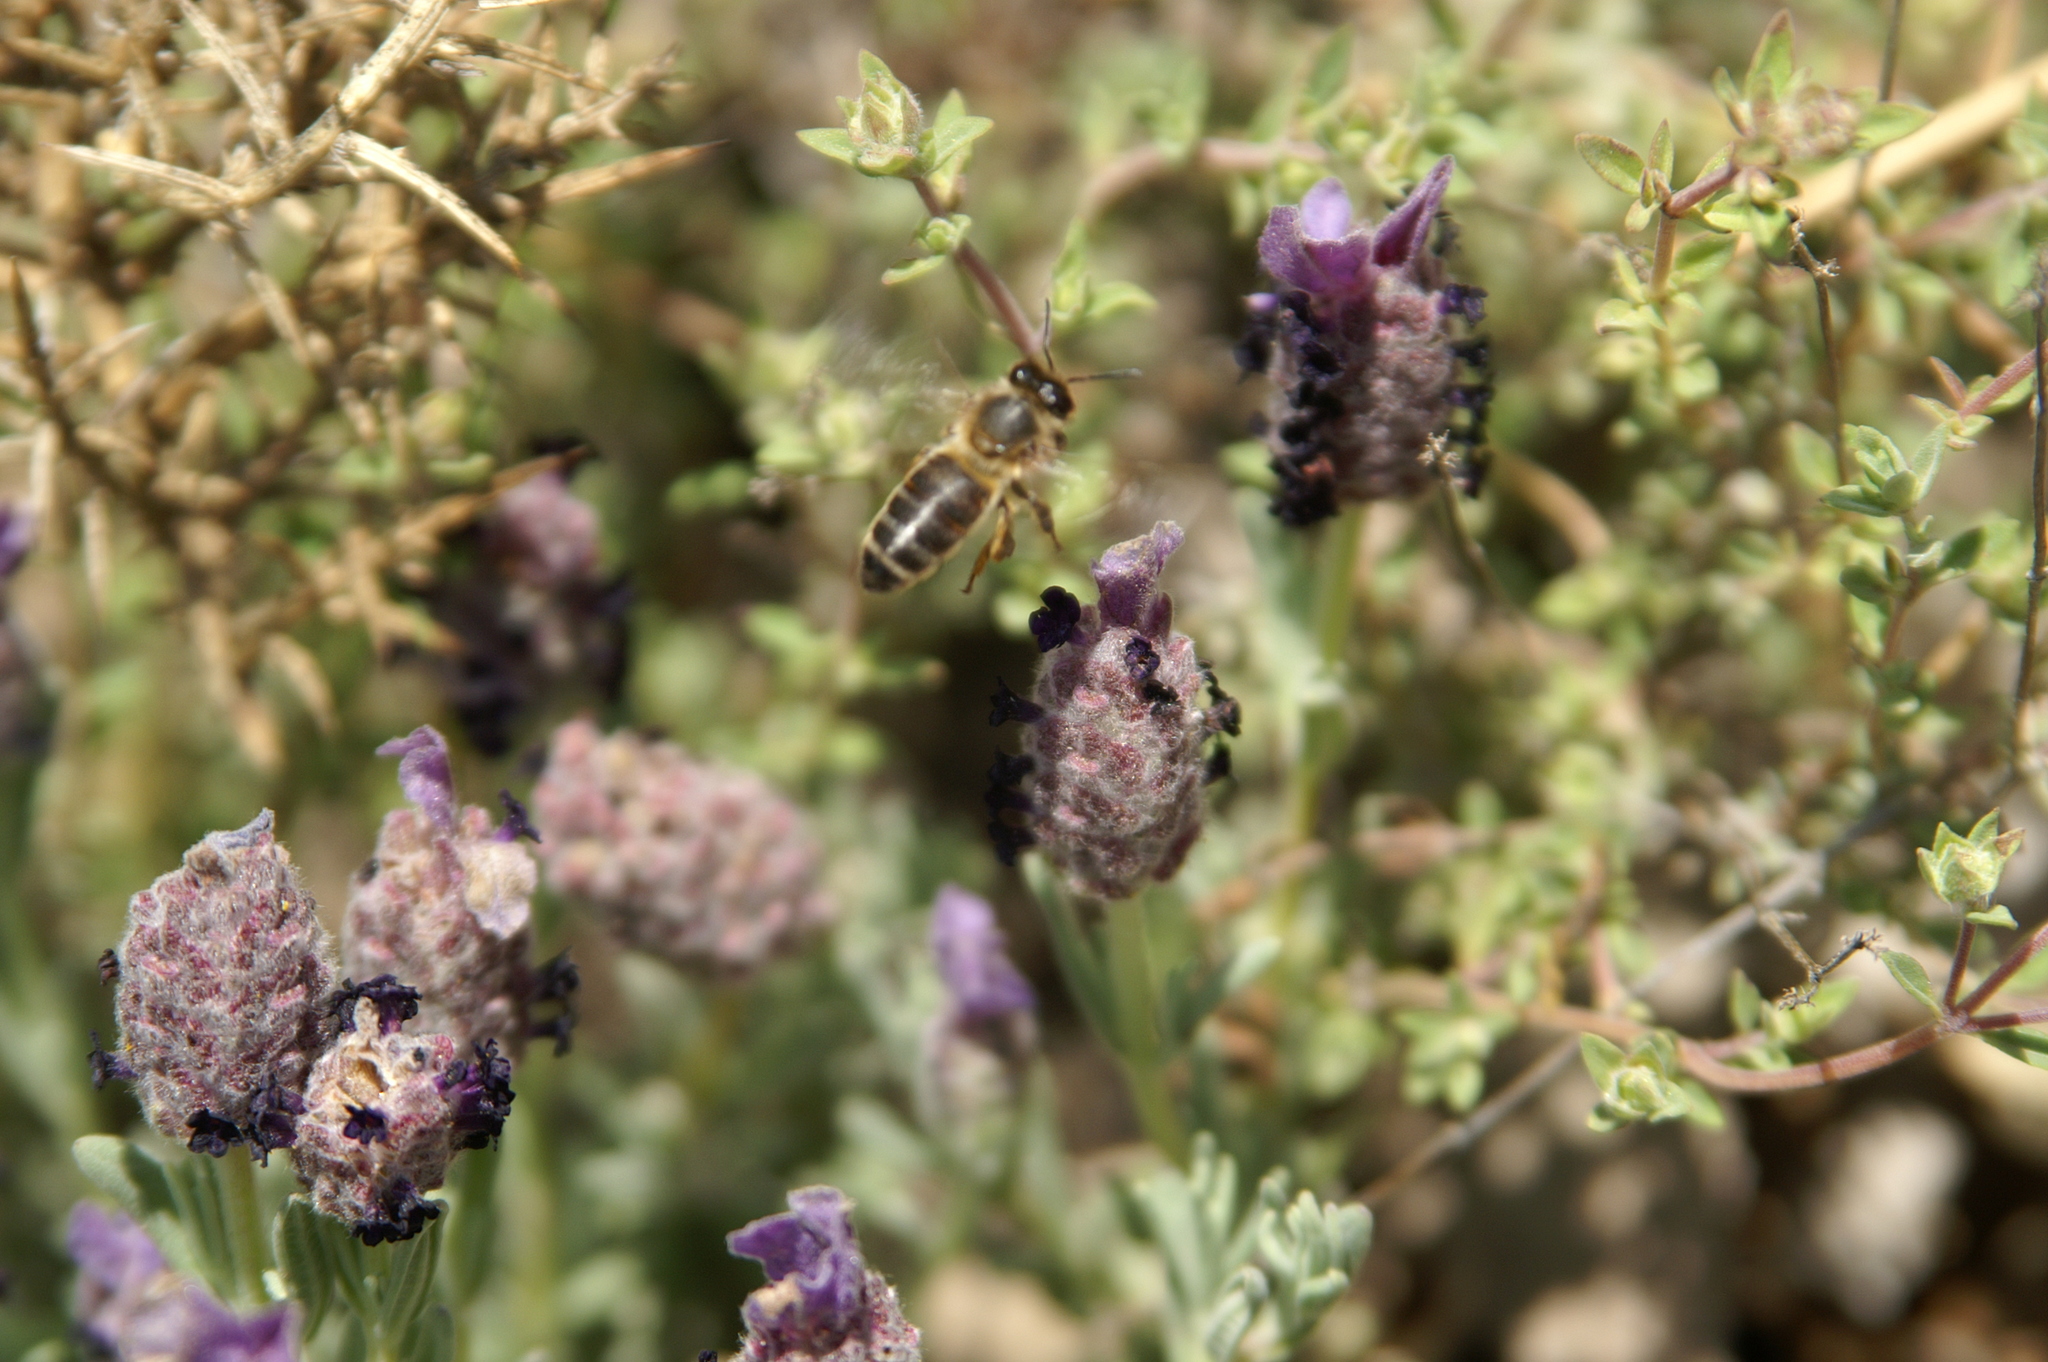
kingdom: Animalia
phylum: Arthropoda
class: Insecta
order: Hymenoptera
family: Apidae
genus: Apis
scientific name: Apis mellifera
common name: Honey bee
